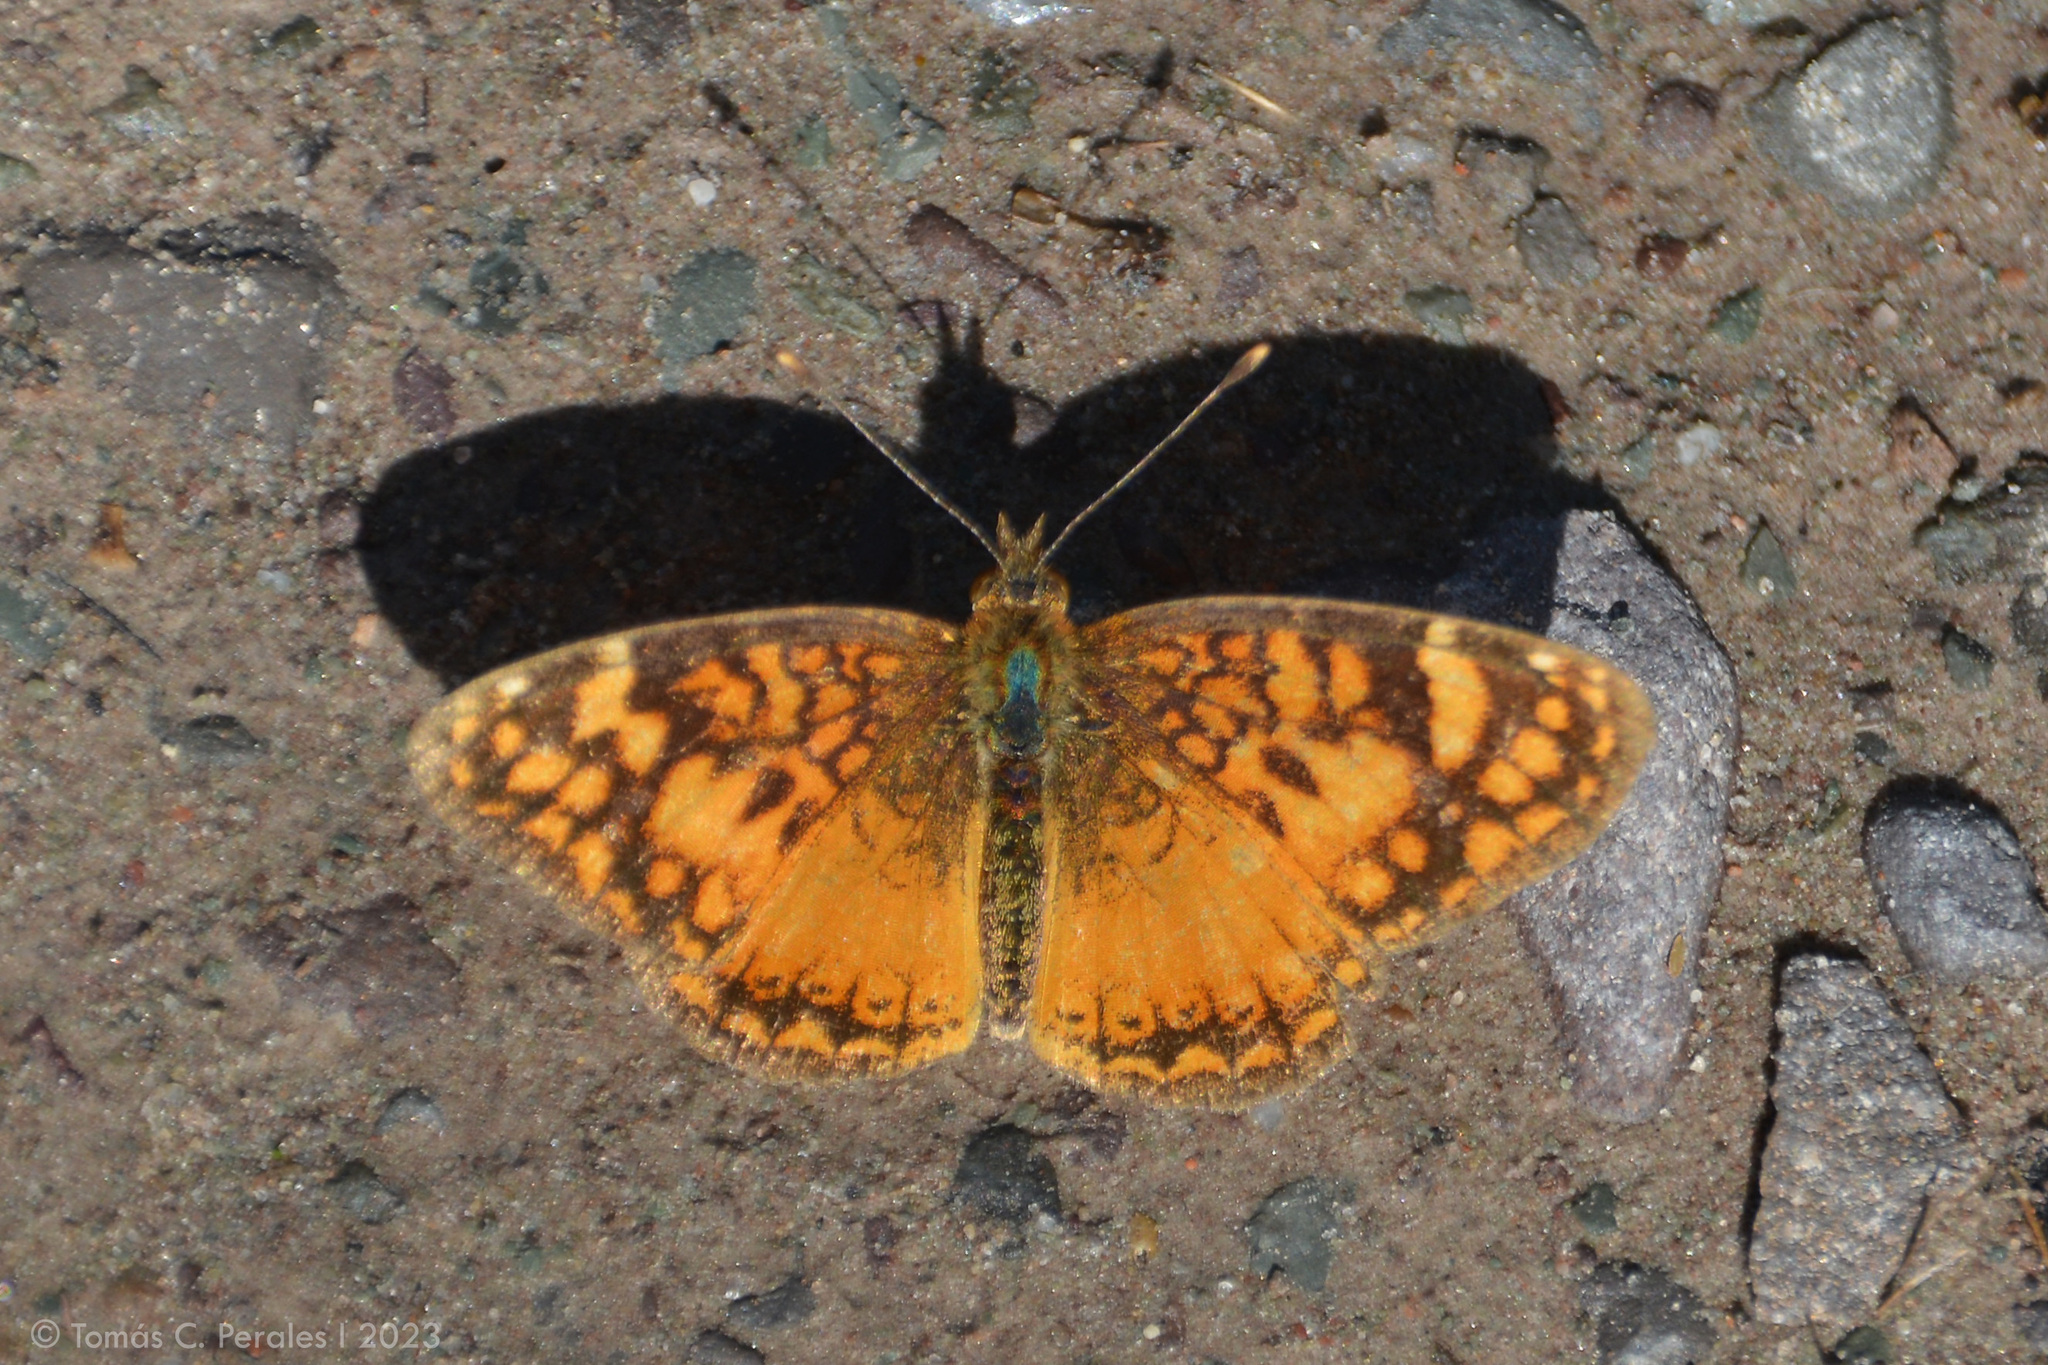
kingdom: Animalia
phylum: Arthropoda
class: Insecta
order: Lepidoptera
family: Nymphalidae
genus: Tegosa
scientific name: Tegosa orobia
